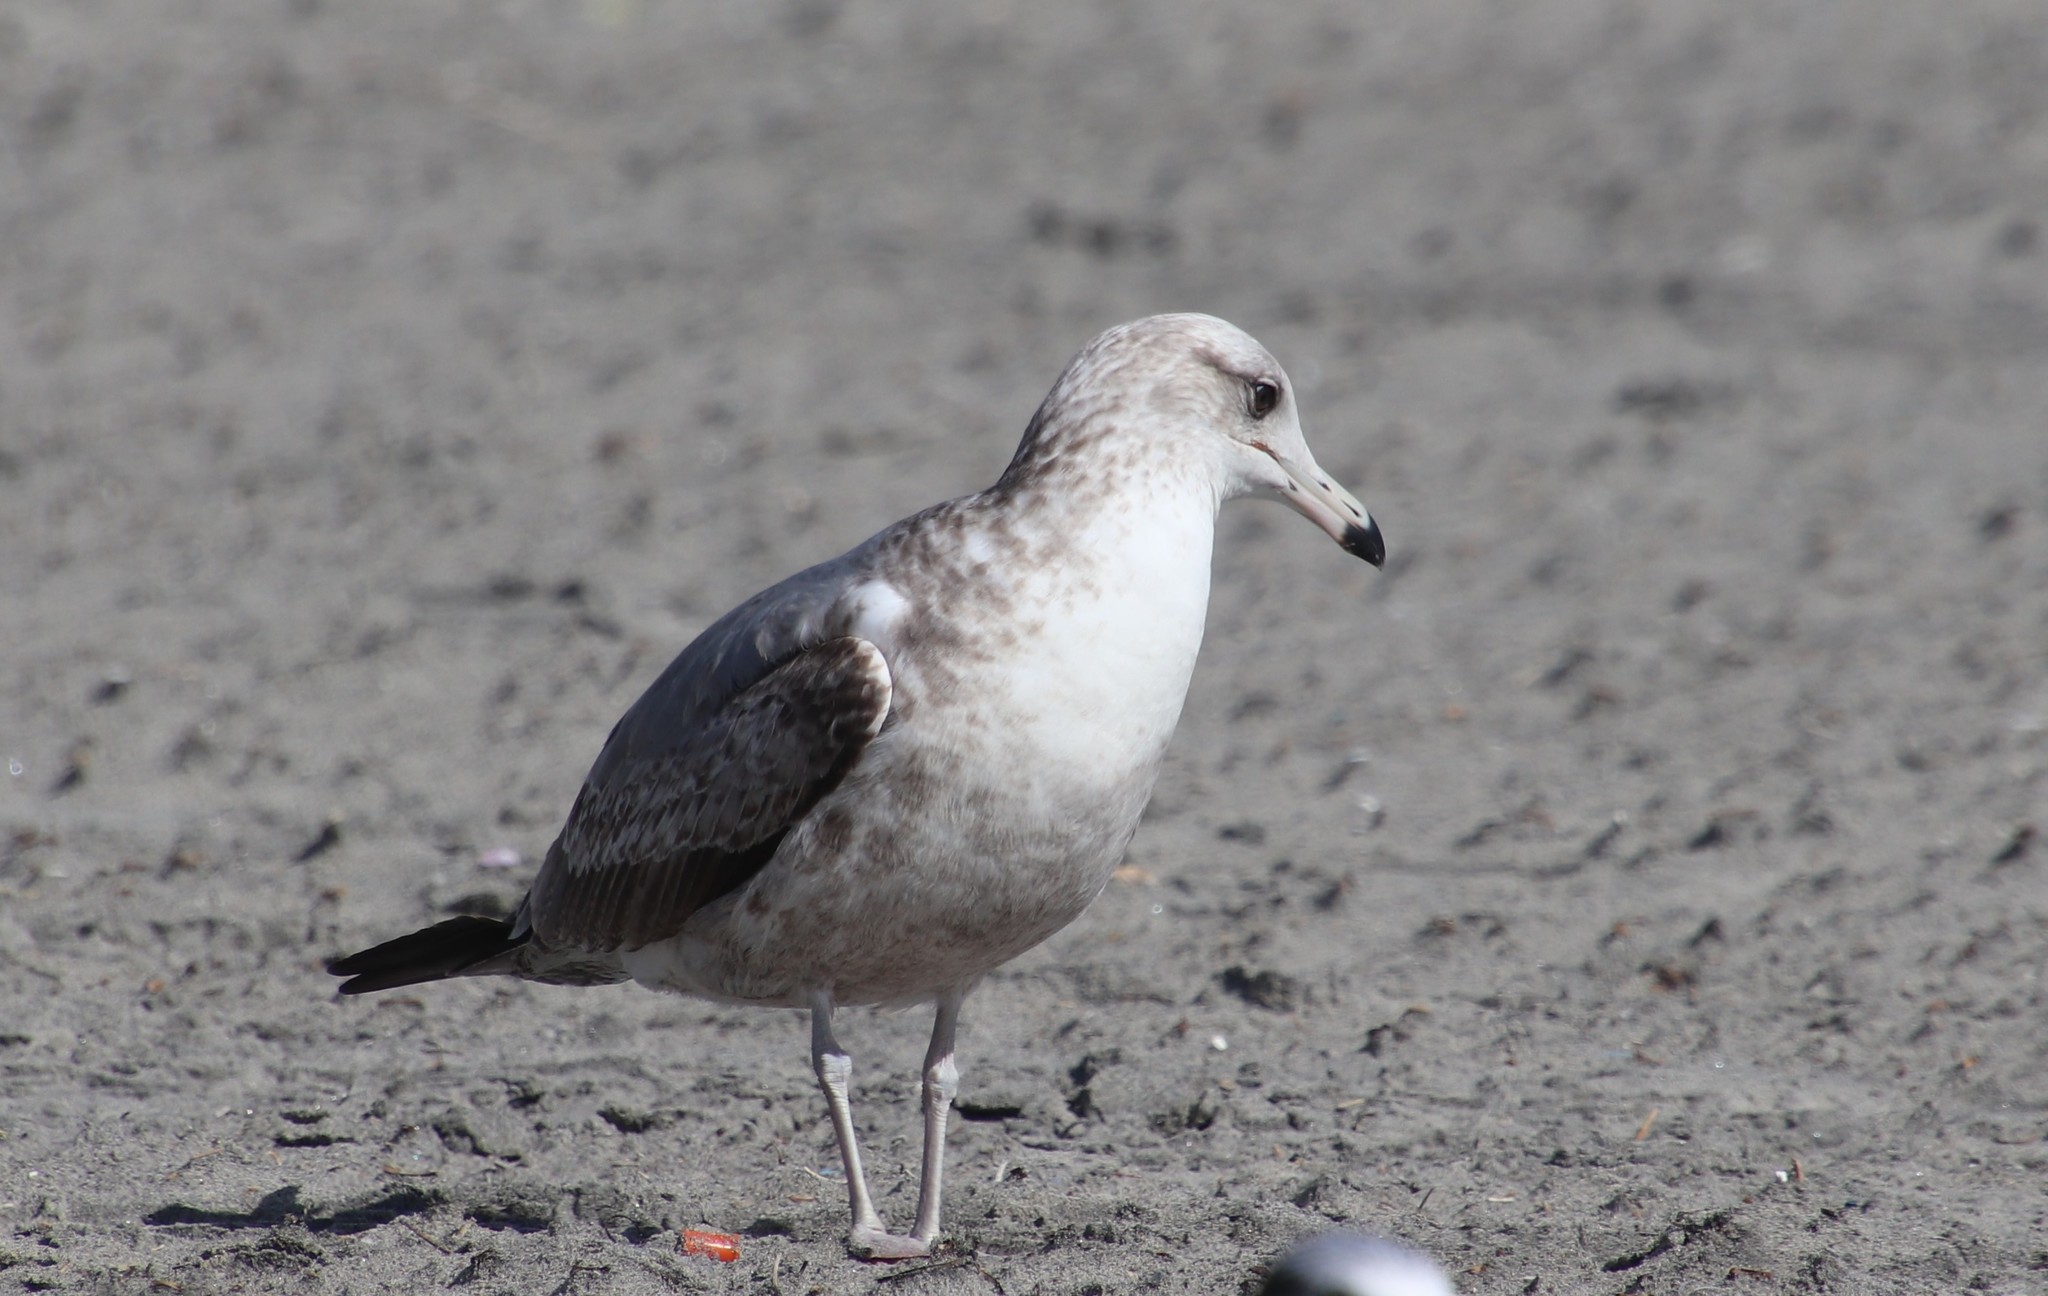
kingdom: Animalia
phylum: Chordata
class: Aves
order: Charadriiformes
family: Laridae
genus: Larus
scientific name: Larus californicus
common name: California gull
